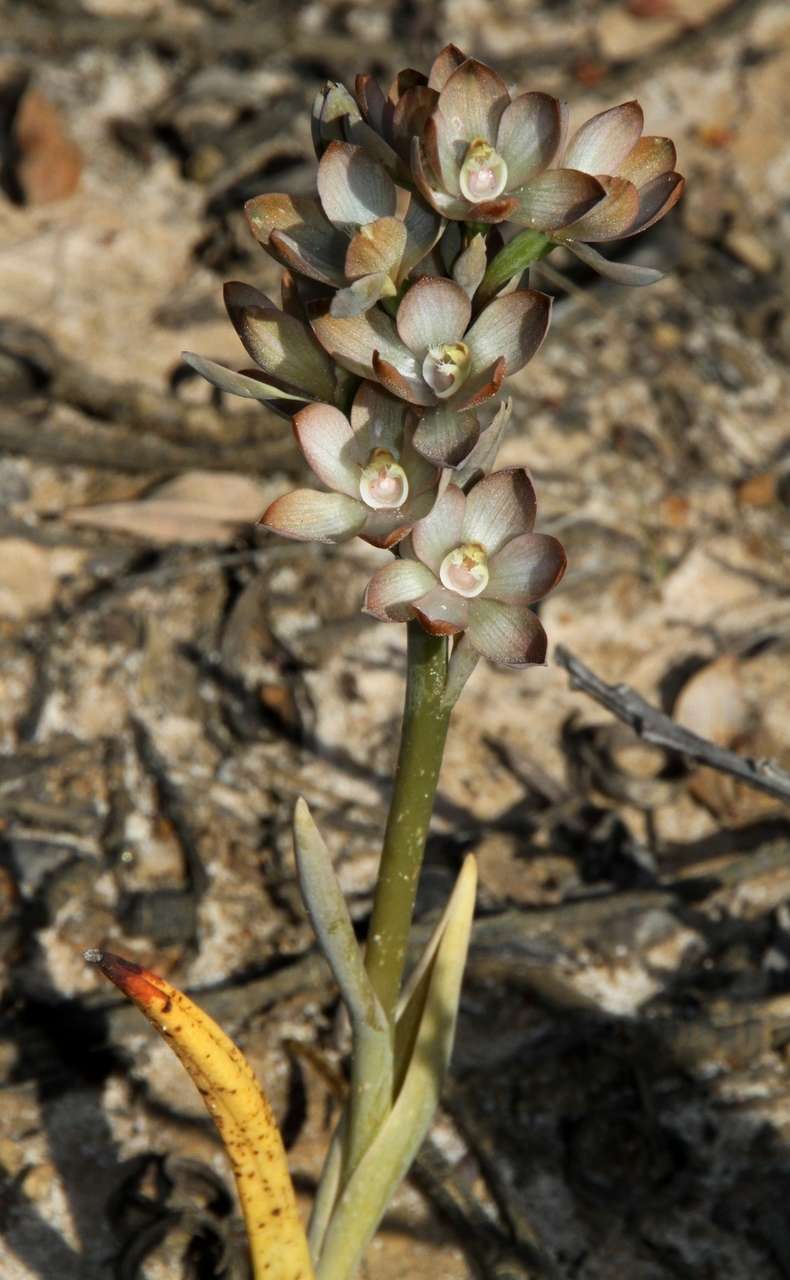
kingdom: Plantae
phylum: Tracheophyta
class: Liliopsida
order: Asparagales
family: Orchidaceae
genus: Thelymitra
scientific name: Thelymitra epipactoides
